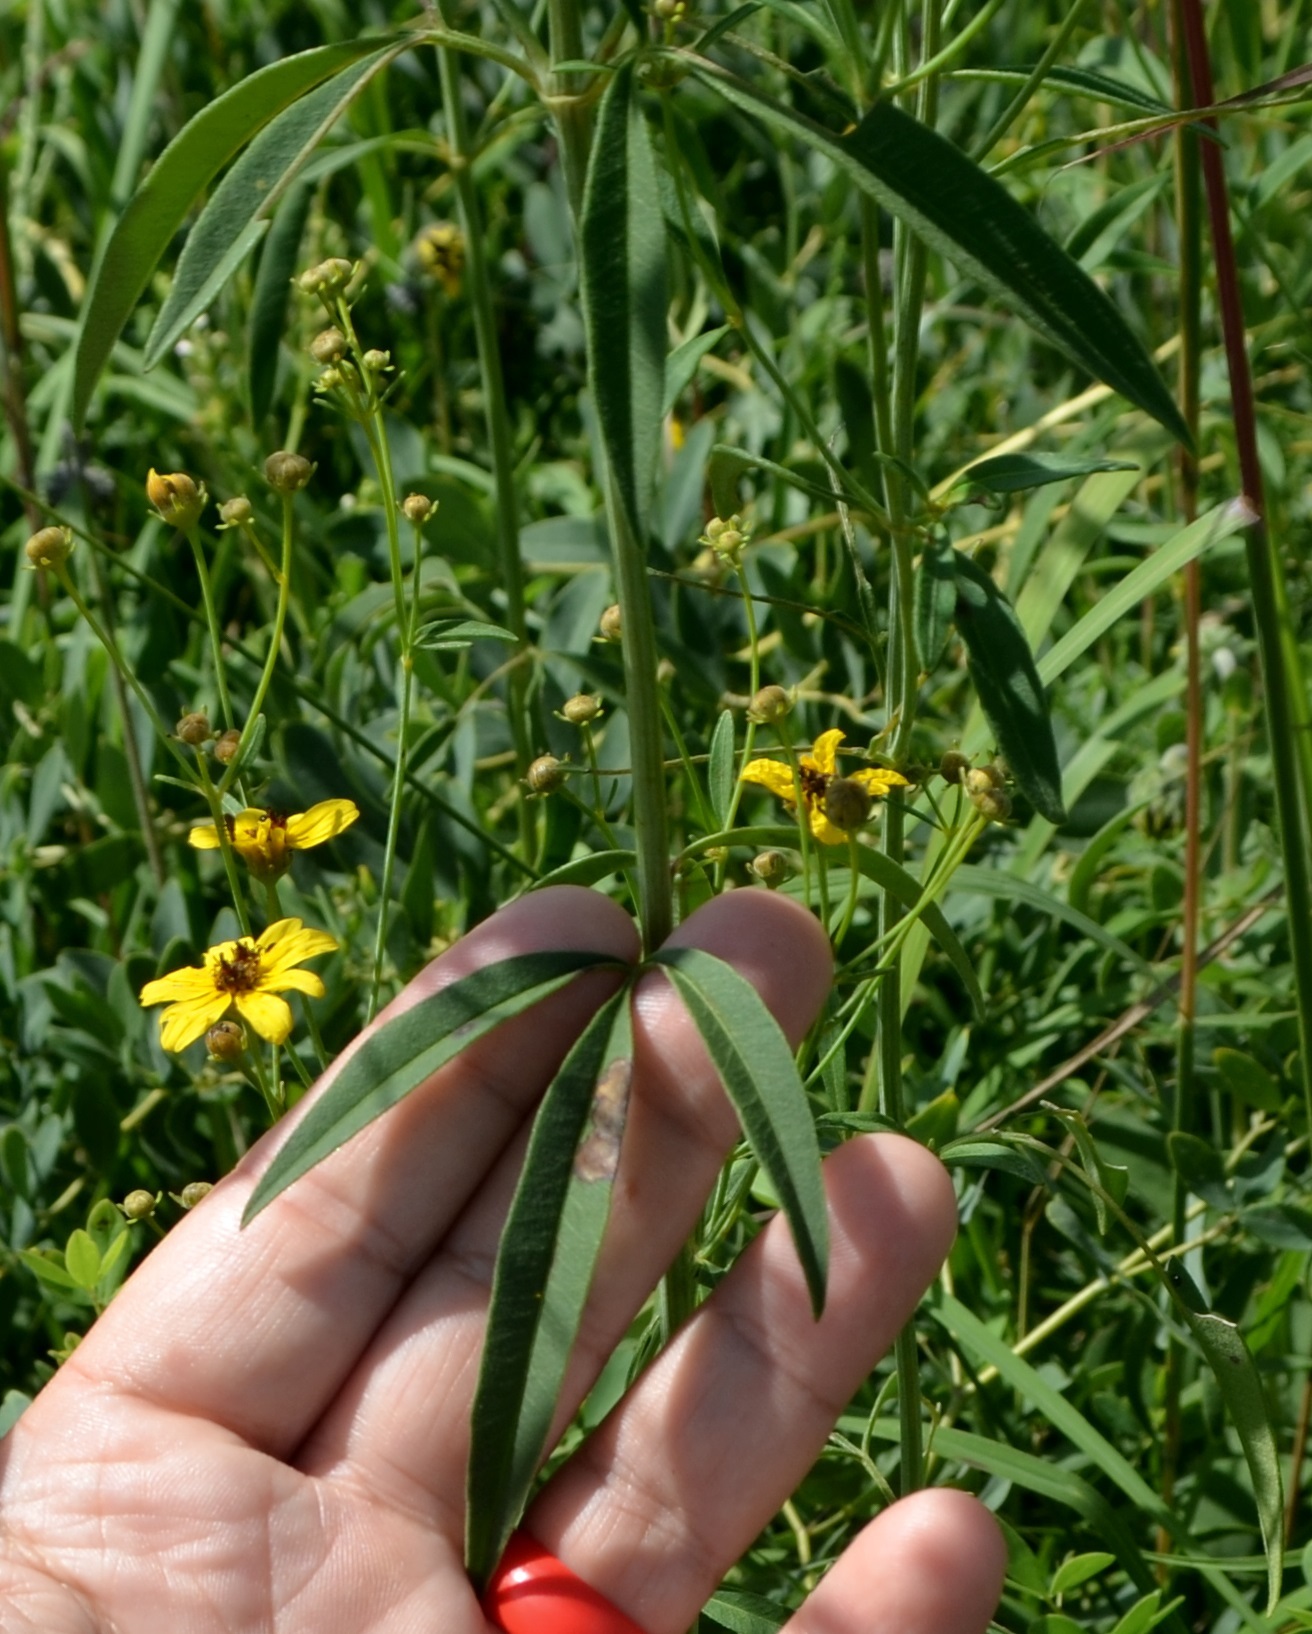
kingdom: Plantae
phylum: Tracheophyta
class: Magnoliopsida
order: Asterales
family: Asteraceae
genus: Coreopsis
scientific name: Coreopsis tripteris
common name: Tall coreopsis
